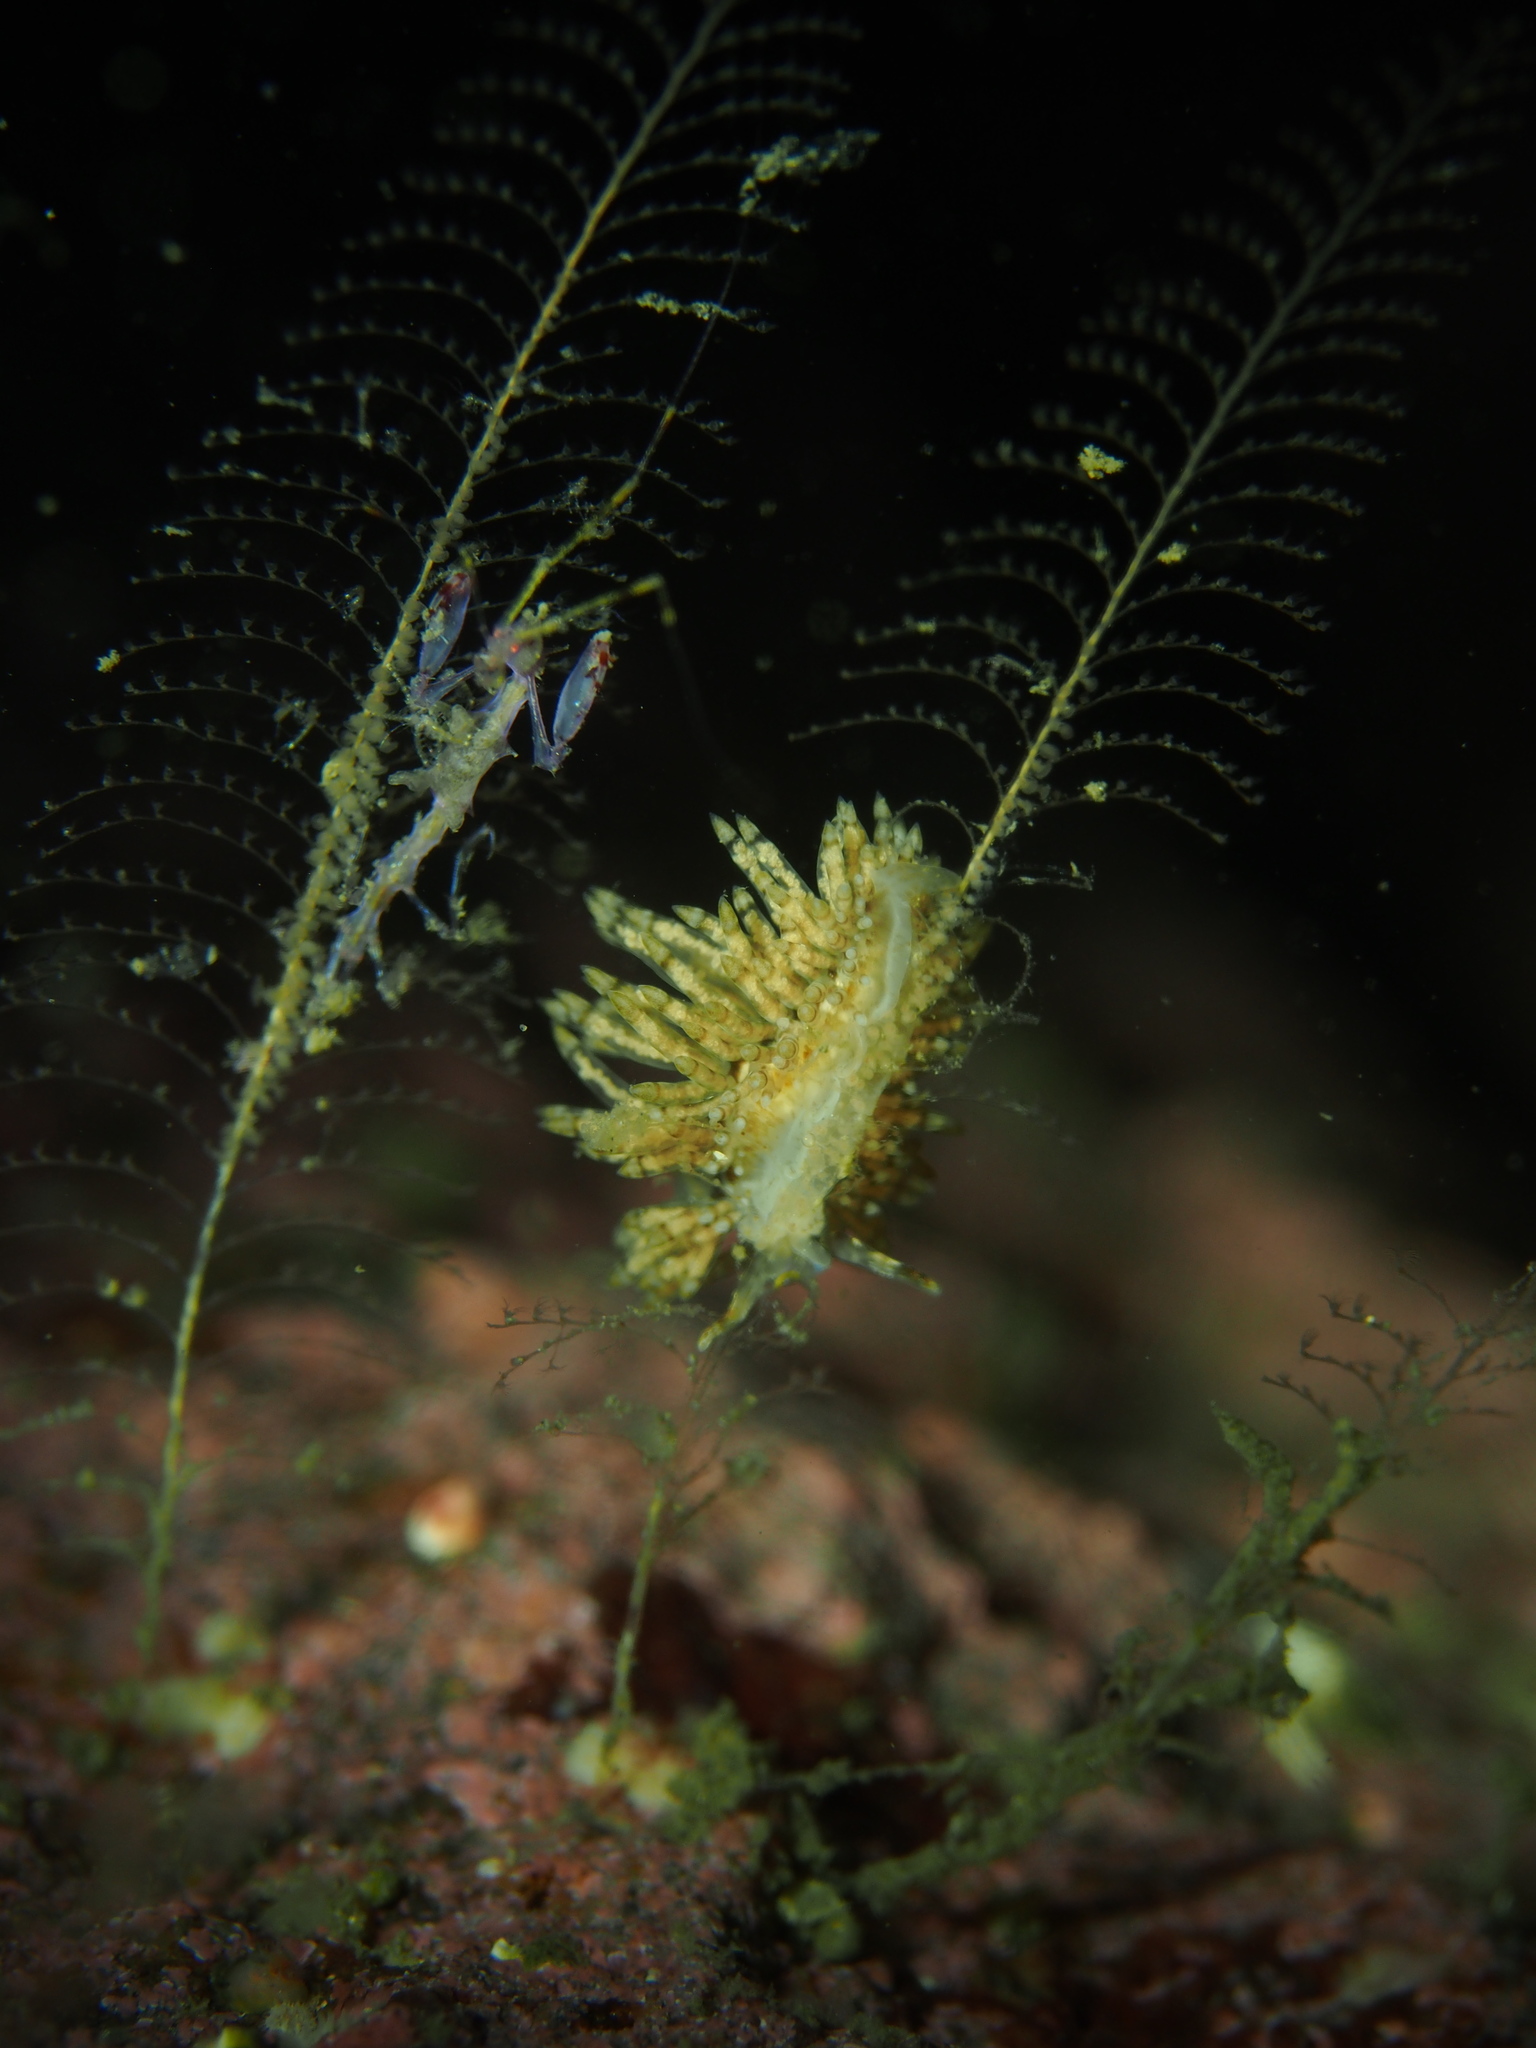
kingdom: Animalia
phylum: Mollusca
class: Gastropoda
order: Nudibranchia
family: Eubranchidae
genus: Eubranchus
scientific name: Eubranchus vittatus
